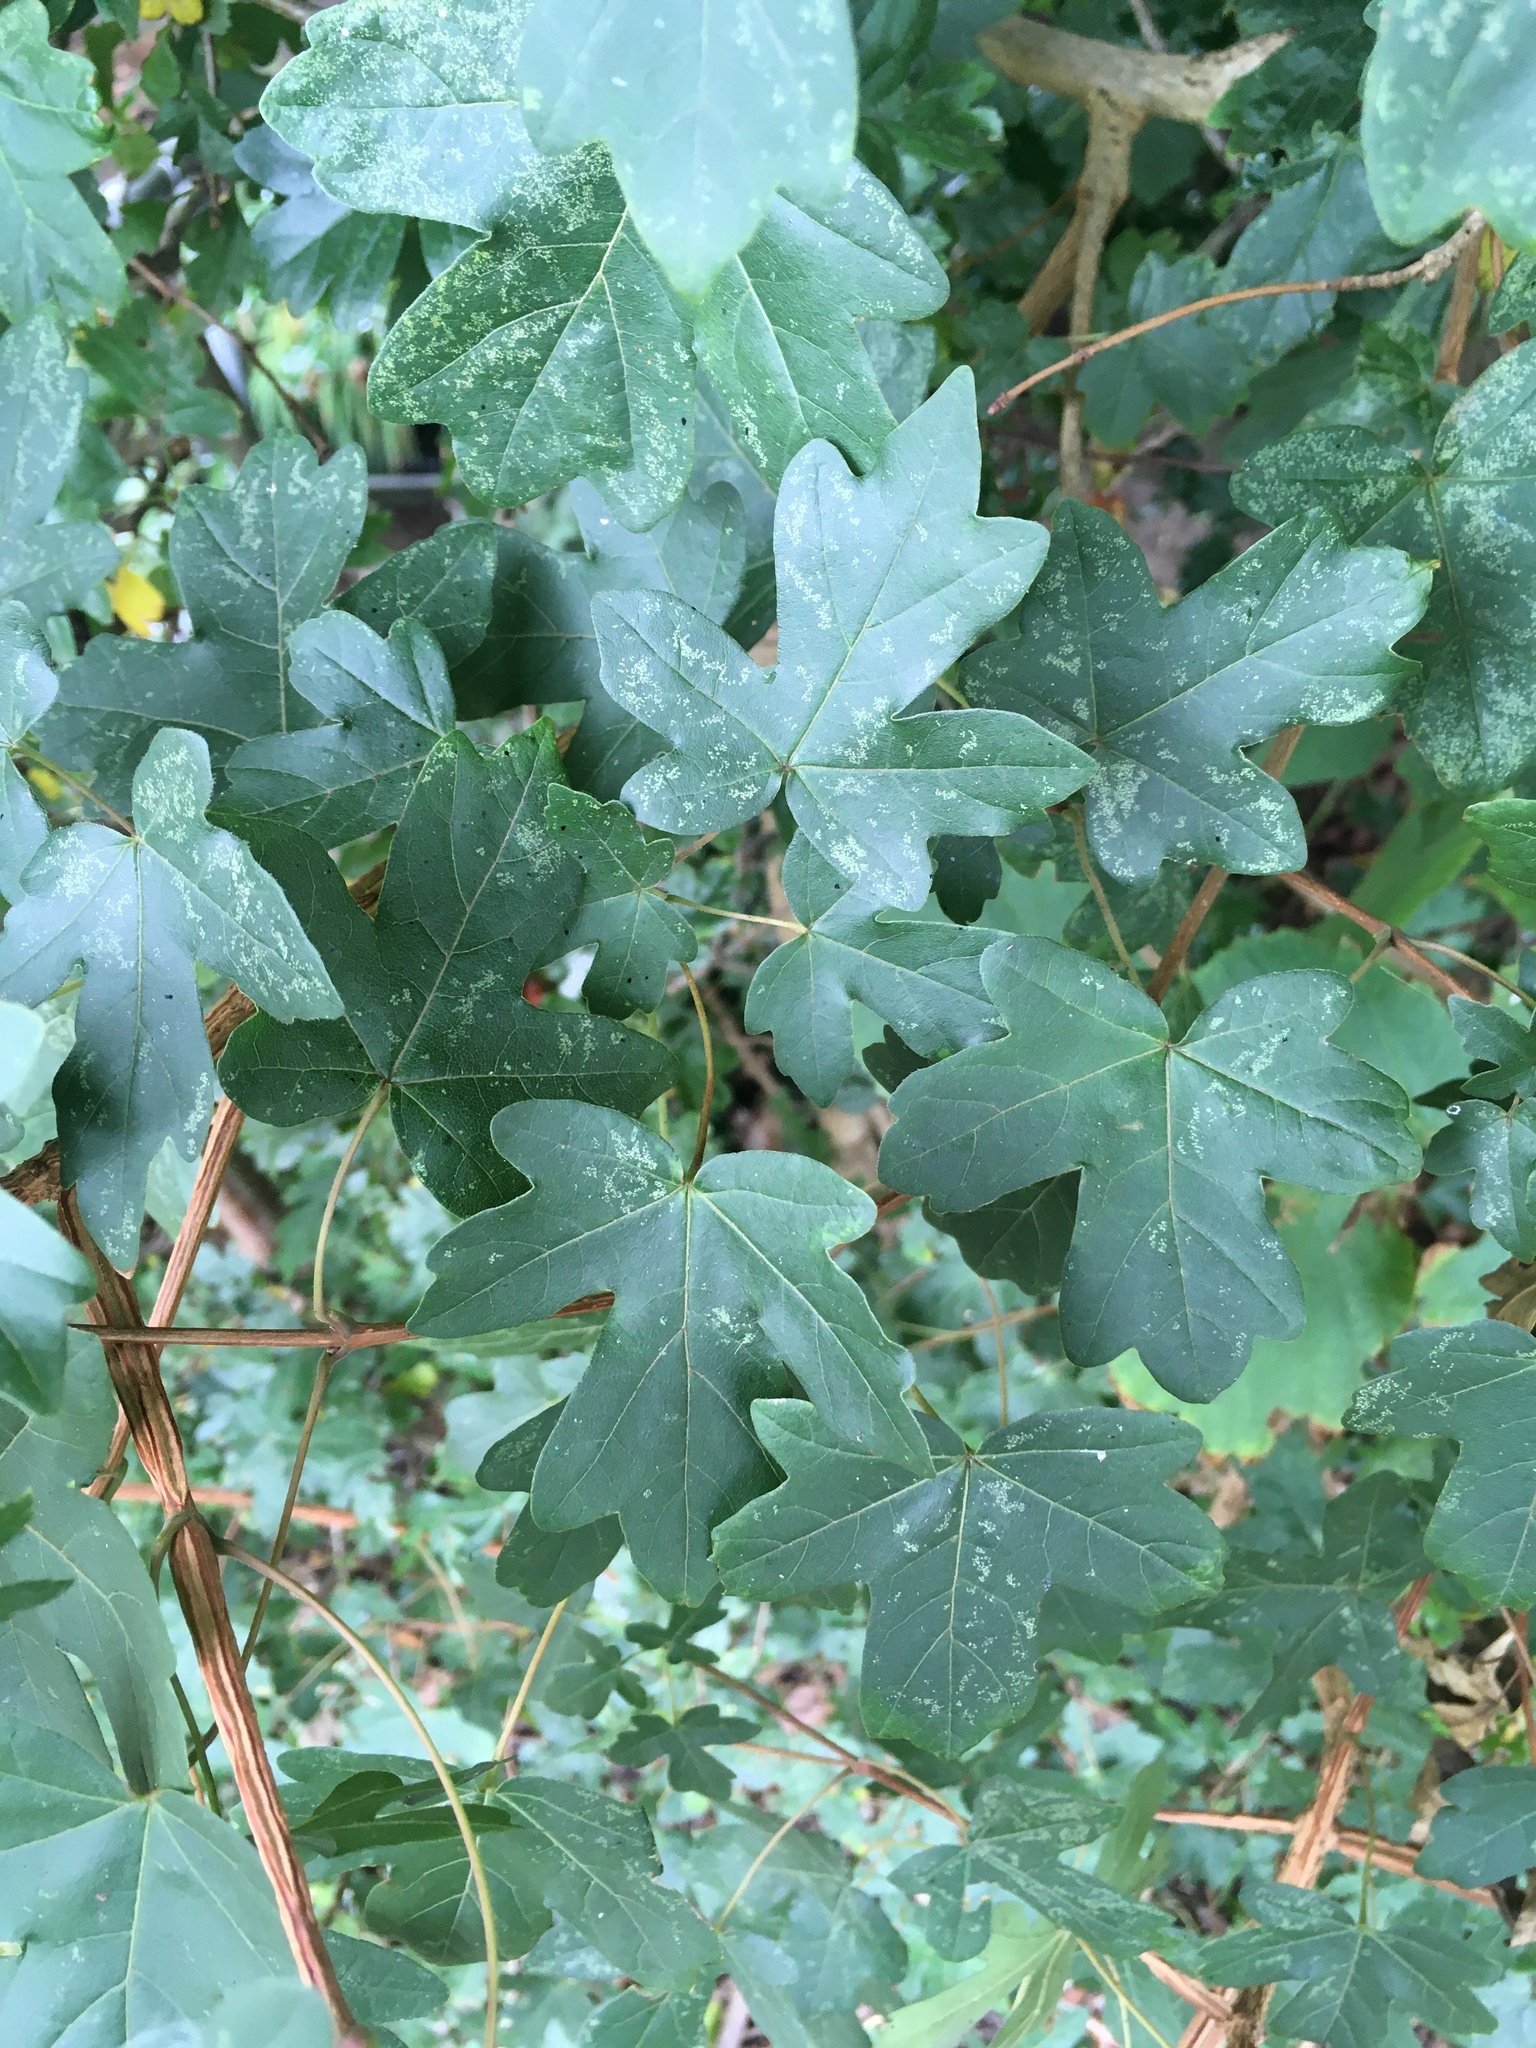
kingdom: Plantae
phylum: Tracheophyta
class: Magnoliopsida
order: Sapindales
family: Sapindaceae
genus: Acer
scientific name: Acer campestre
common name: Field maple
